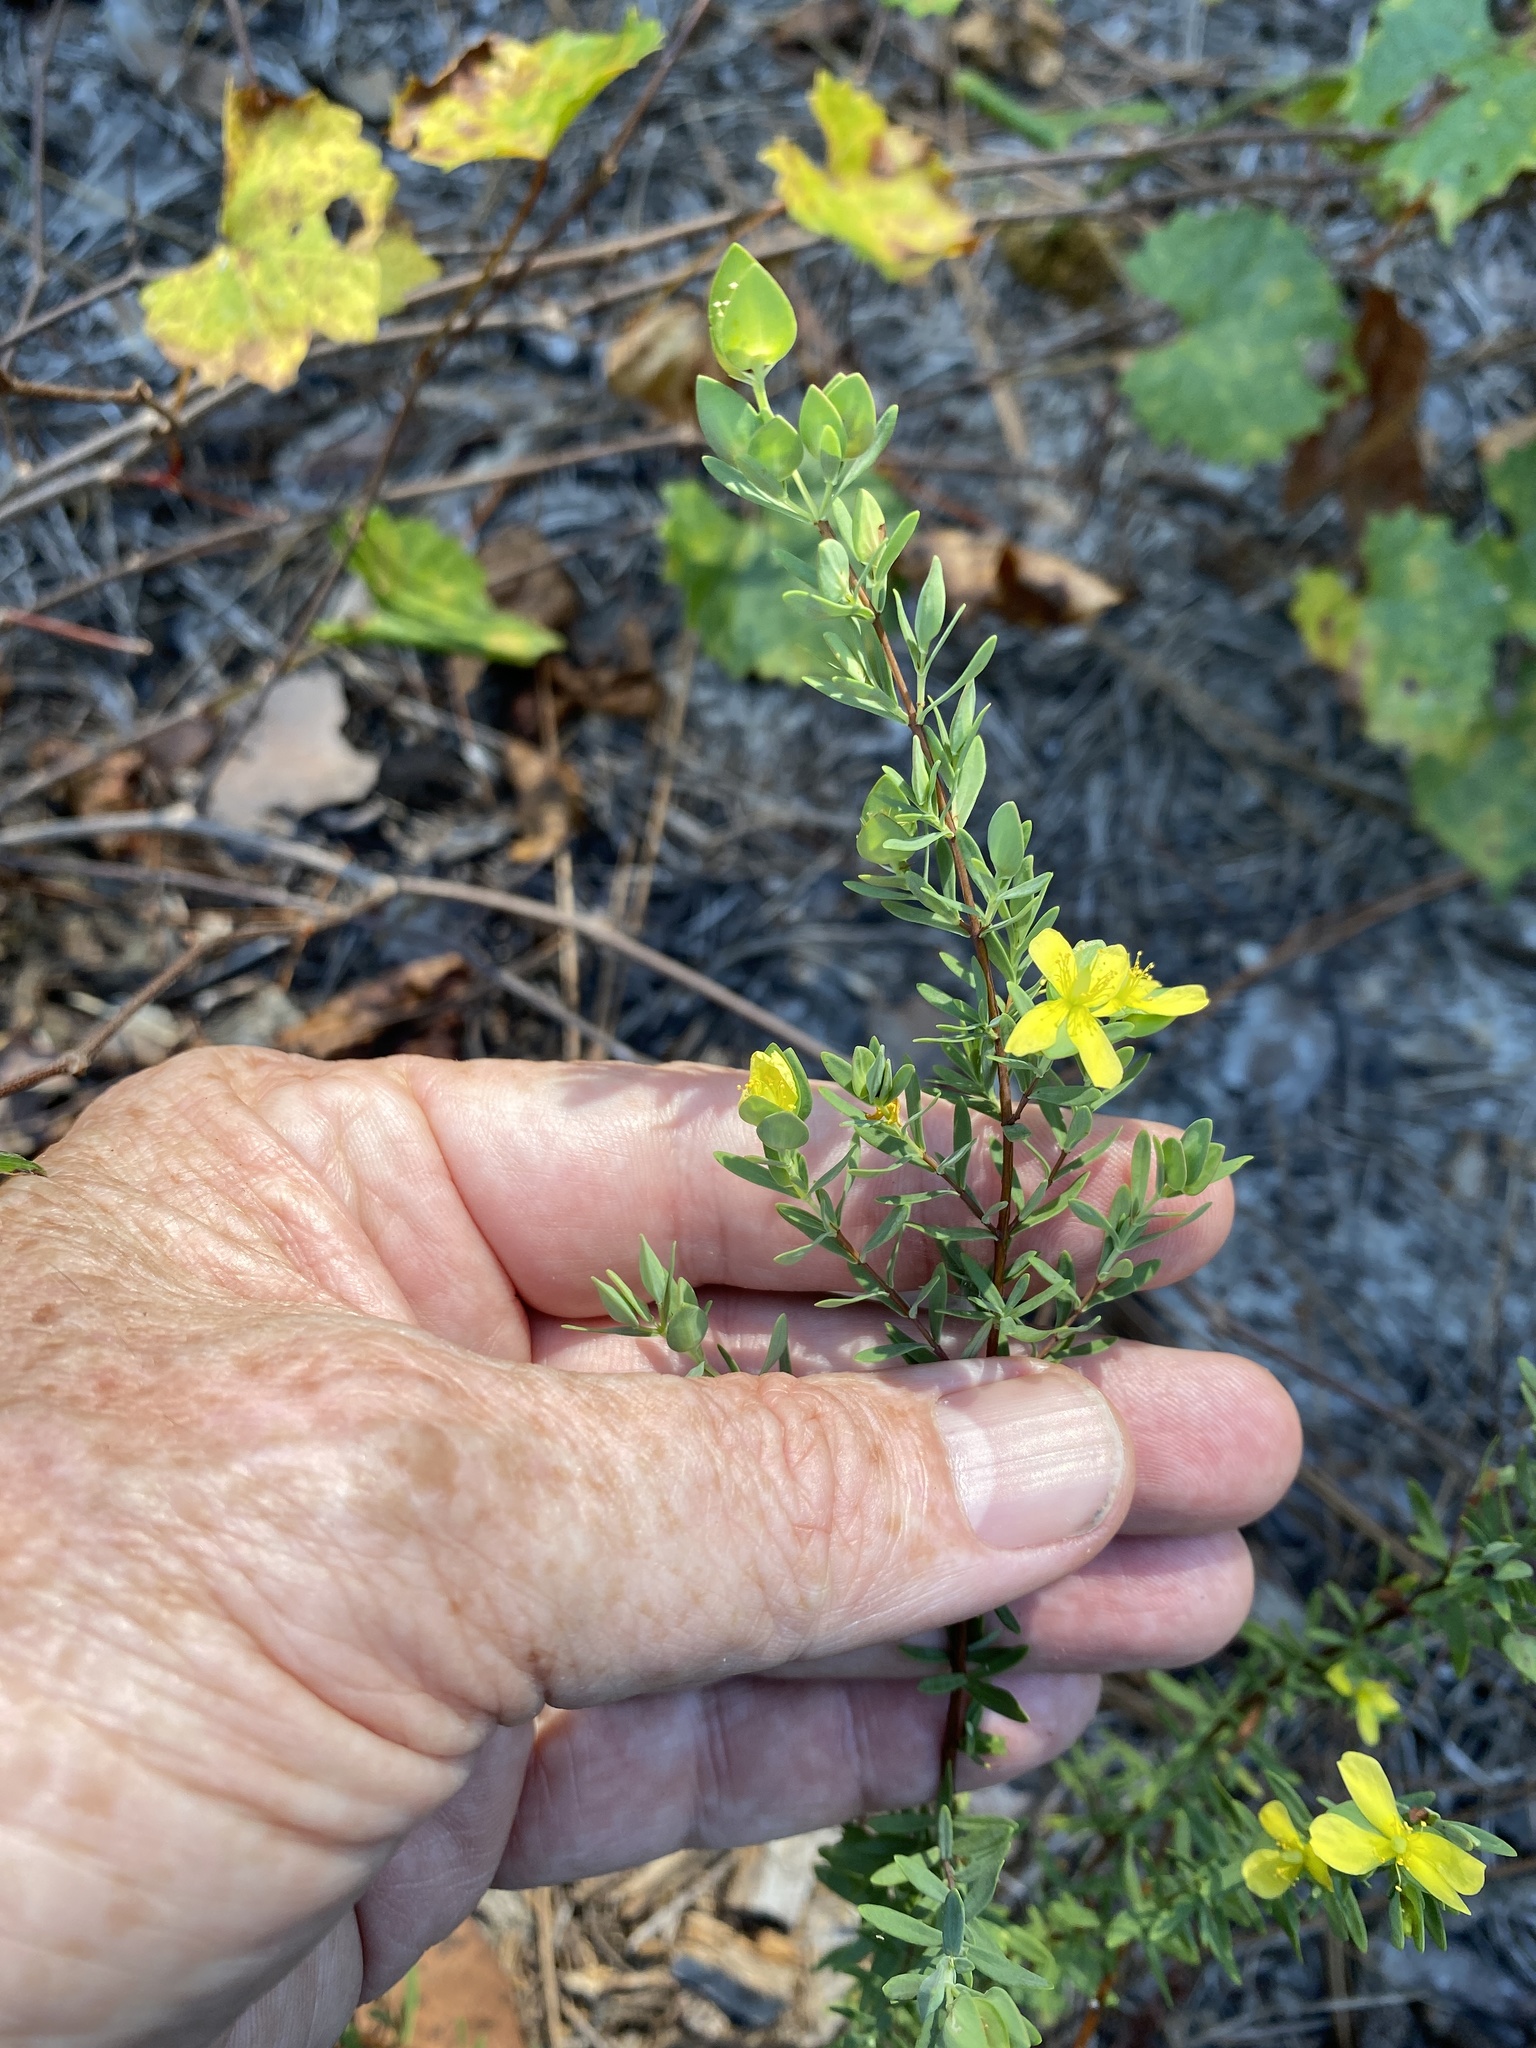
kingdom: Plantae
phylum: Tracheophyta
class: Magnoliopsida
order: Malpighiales
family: Hypericaceae
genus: Hypericum
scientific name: Hypericum hypericoides
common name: St. andrew's cross
